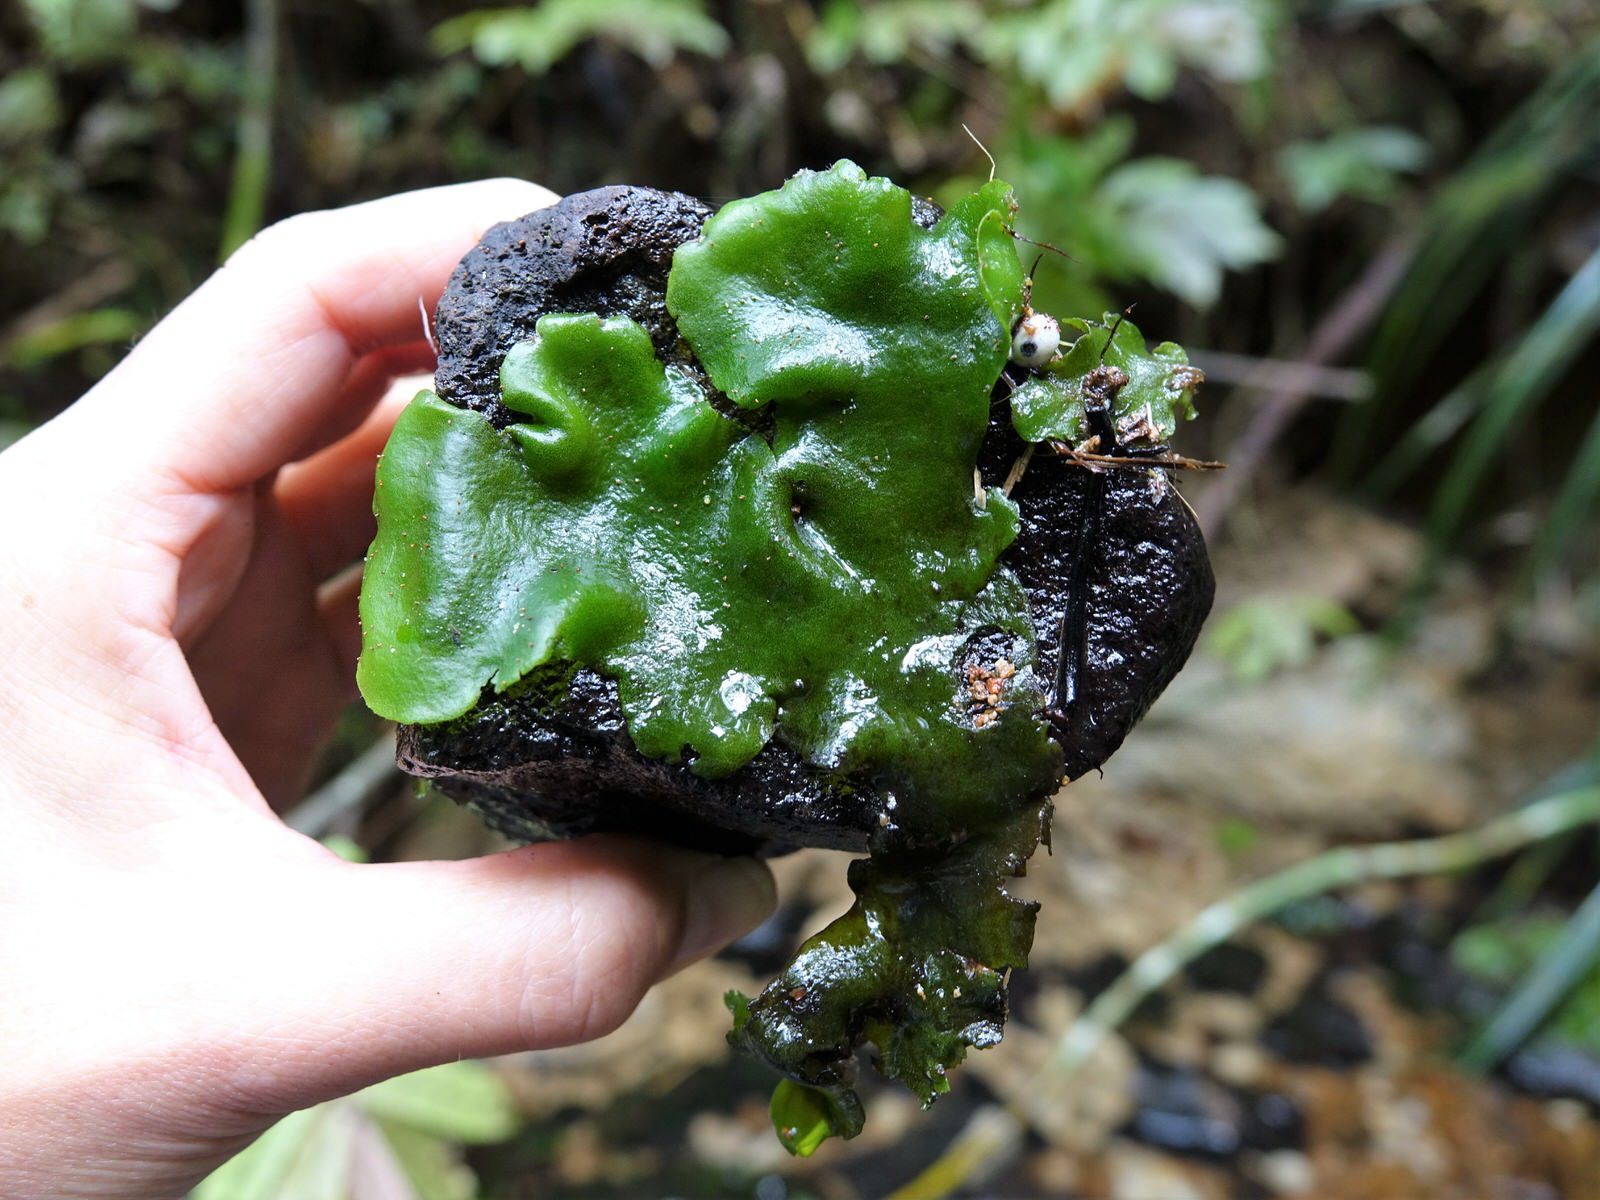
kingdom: Plantae
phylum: Marchantiophyta
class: Marchantiopsida
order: Marchantiales
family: Monocleaceae
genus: Monoclea
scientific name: Monoclea forsteri
